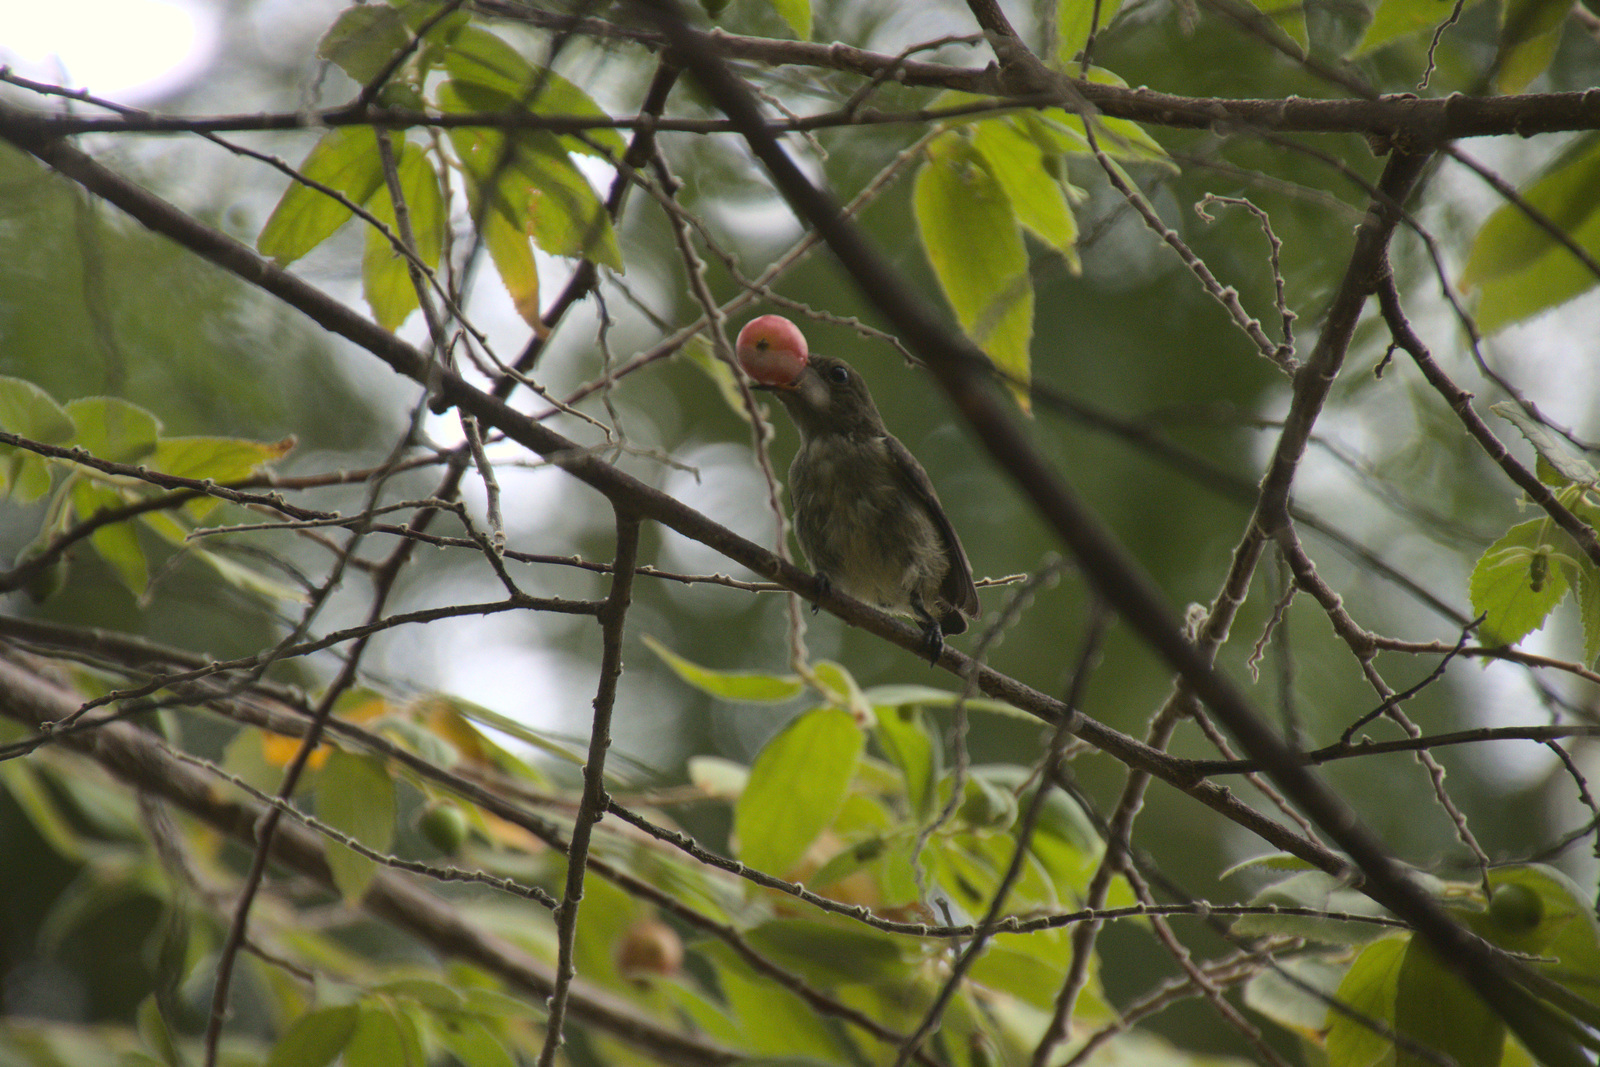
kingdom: Animalia
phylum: Chordata
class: Aves
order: Passeriformes
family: Dicaeidae
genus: Dicaeum
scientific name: Dicaeum cruentatum
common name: Scarlet-backed flowerpecker
